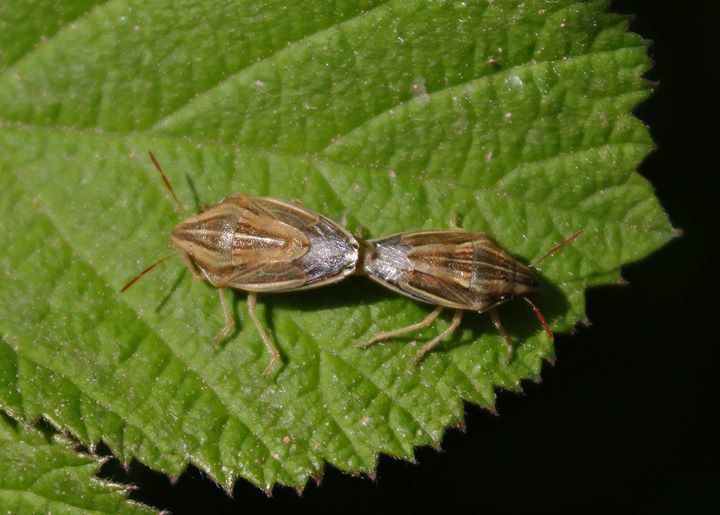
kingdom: Animalia
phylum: Arthropoda
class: Insecta
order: Hemiptera
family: Pentatomidae
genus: Aelia
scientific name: Aelia acuminata
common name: Bishop's mitre
